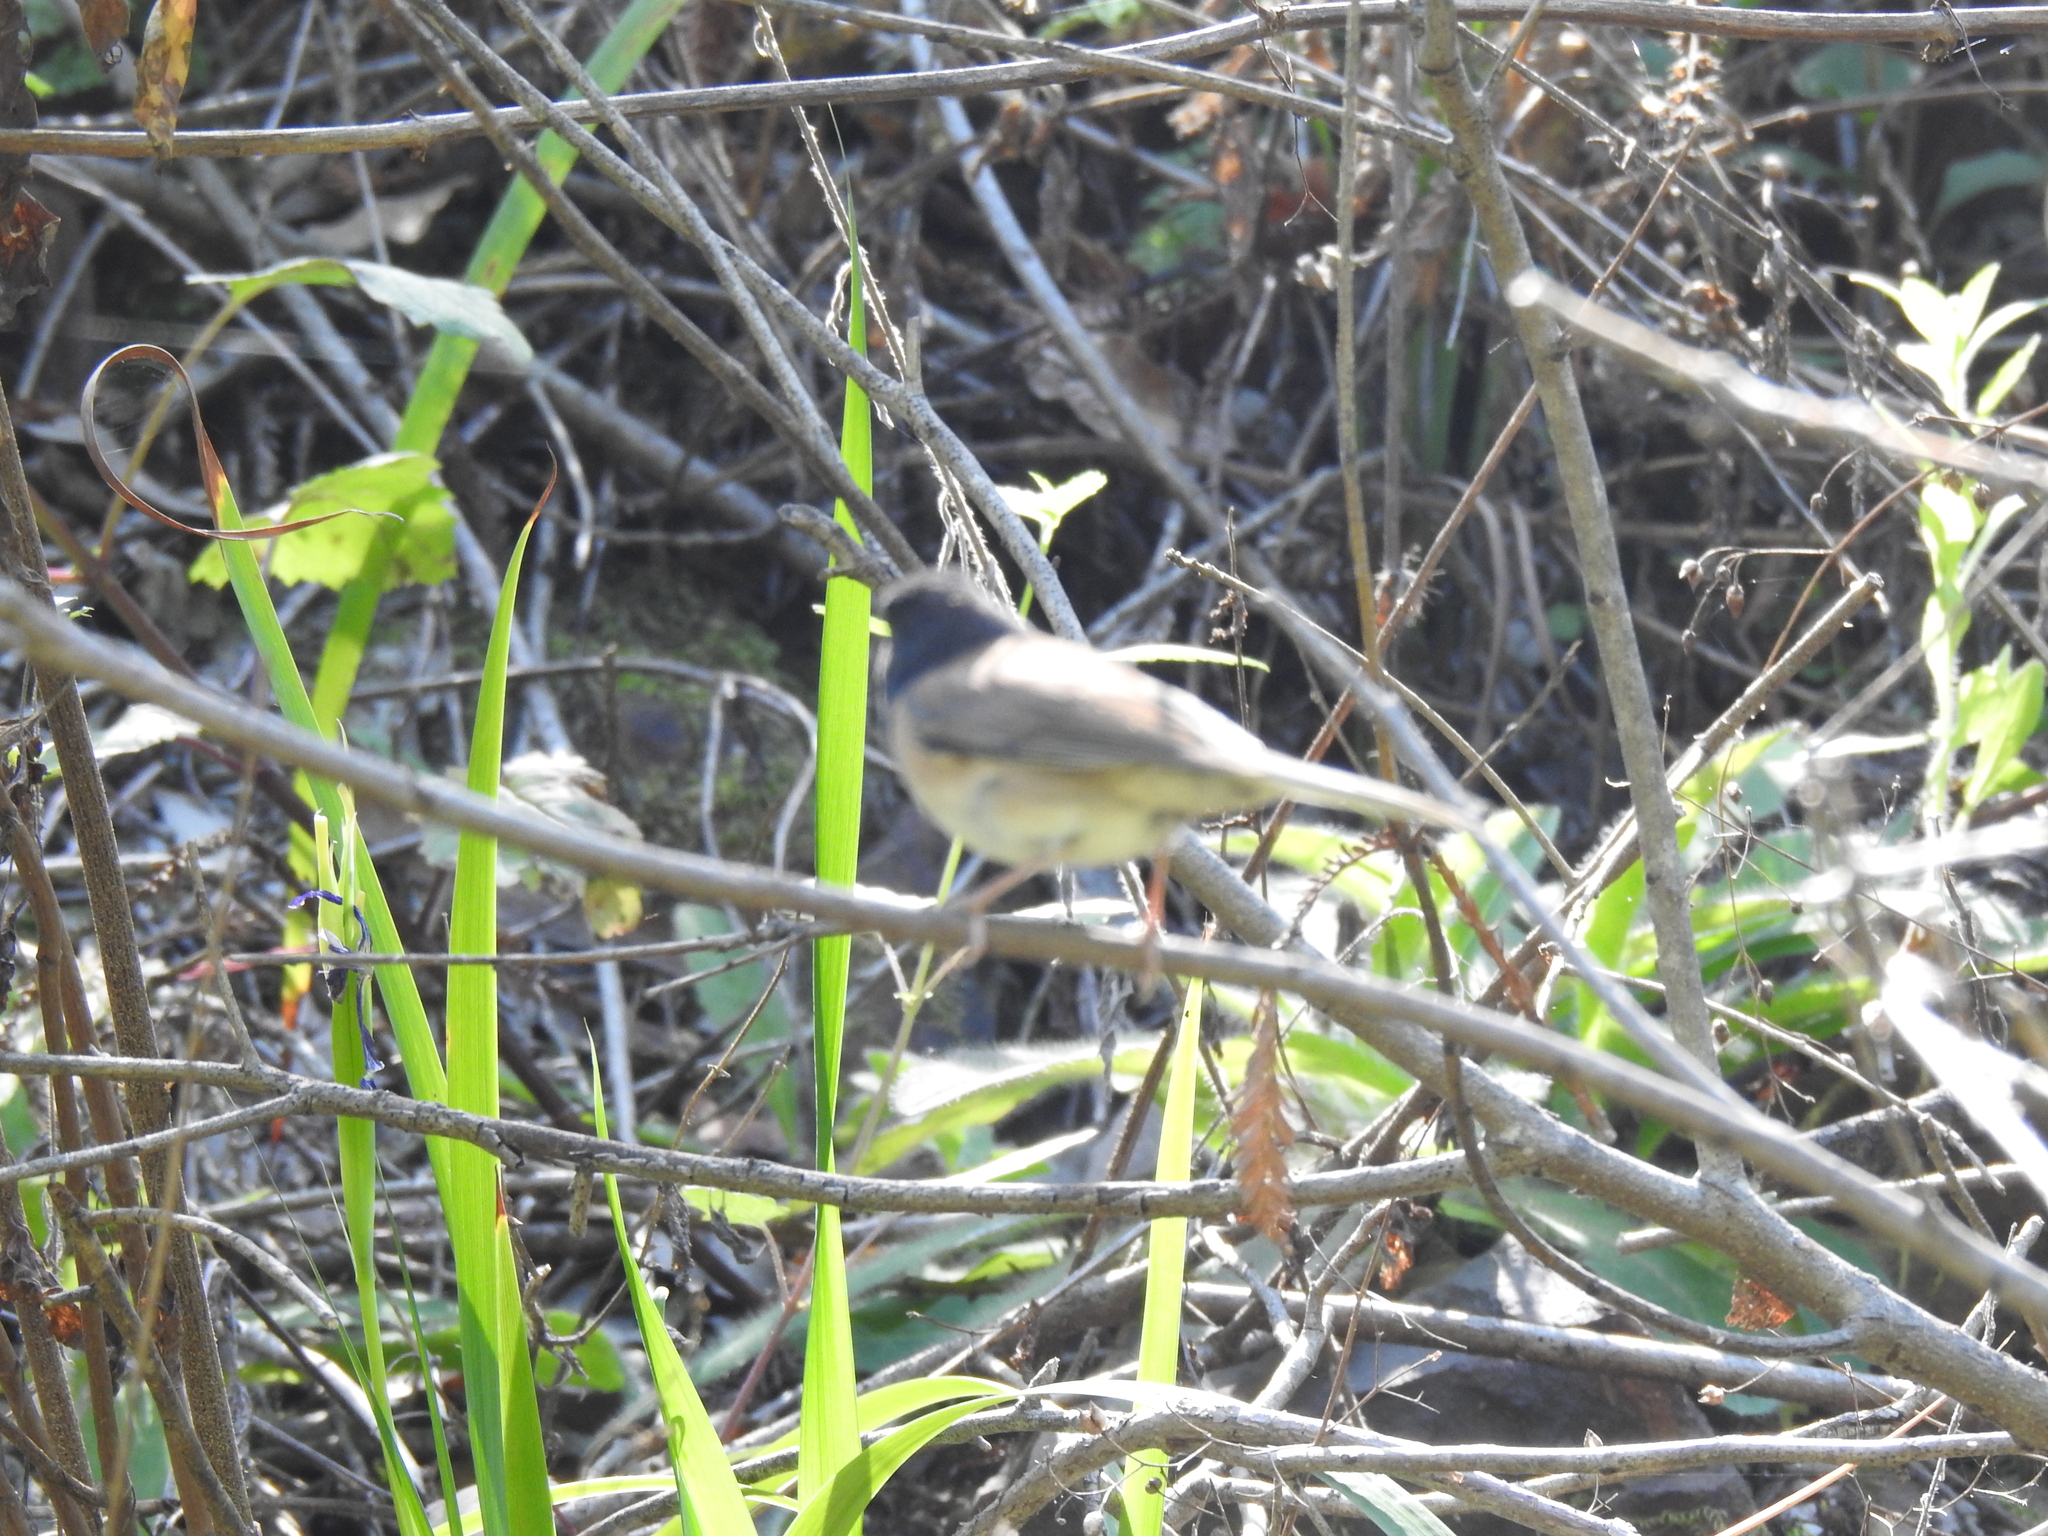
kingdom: Animalia
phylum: Chordata
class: Aves
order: Passeriformes
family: Passerellidae
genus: Junco
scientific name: Junco hyemalis
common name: Dark-eyed junco
